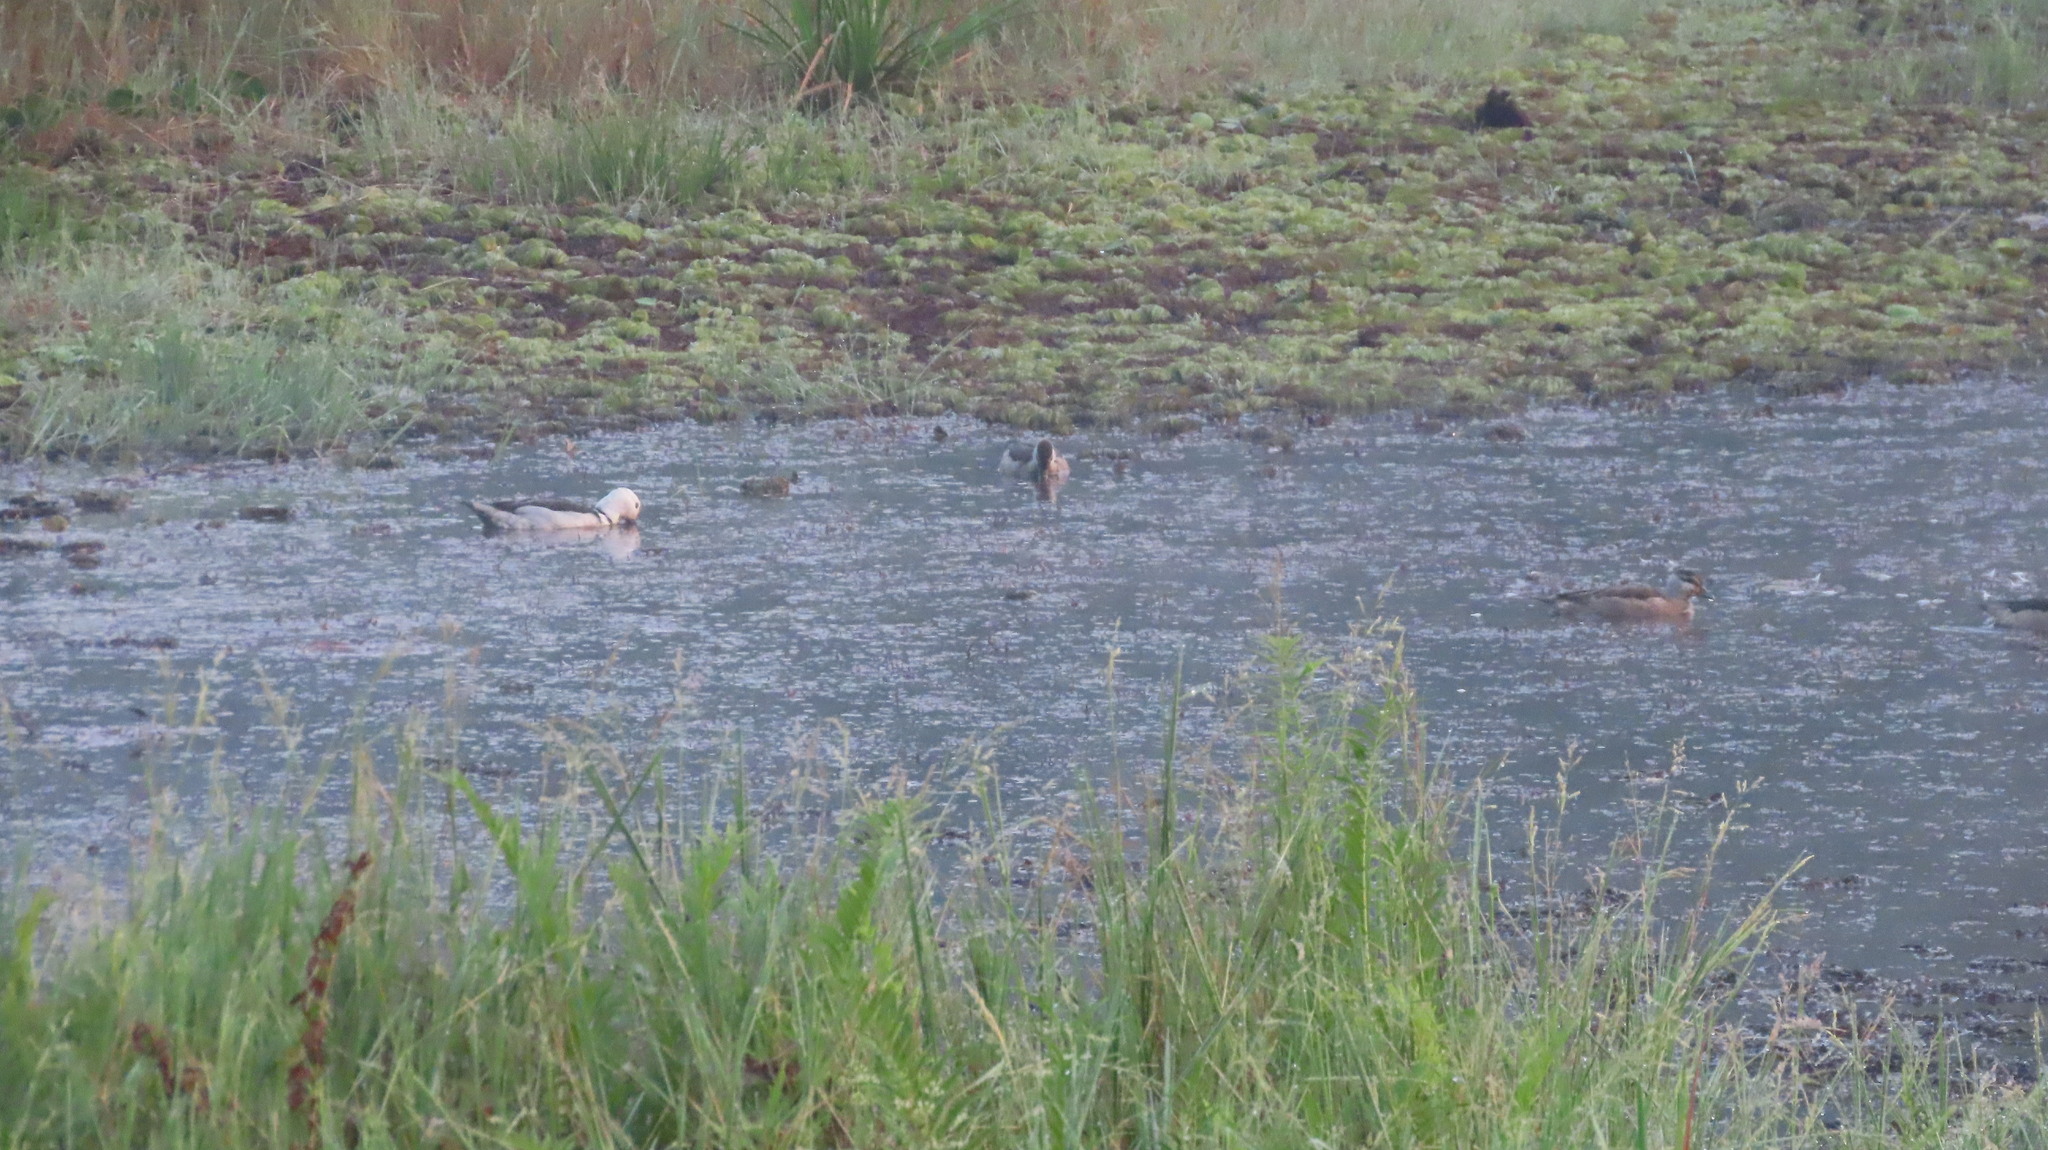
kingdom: Animalia
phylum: Chordata
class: Aves
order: Anseriformes
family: Anatidae
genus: Nettapus
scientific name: Nettapus coromandelianus
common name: Cotton pygmy-goose
